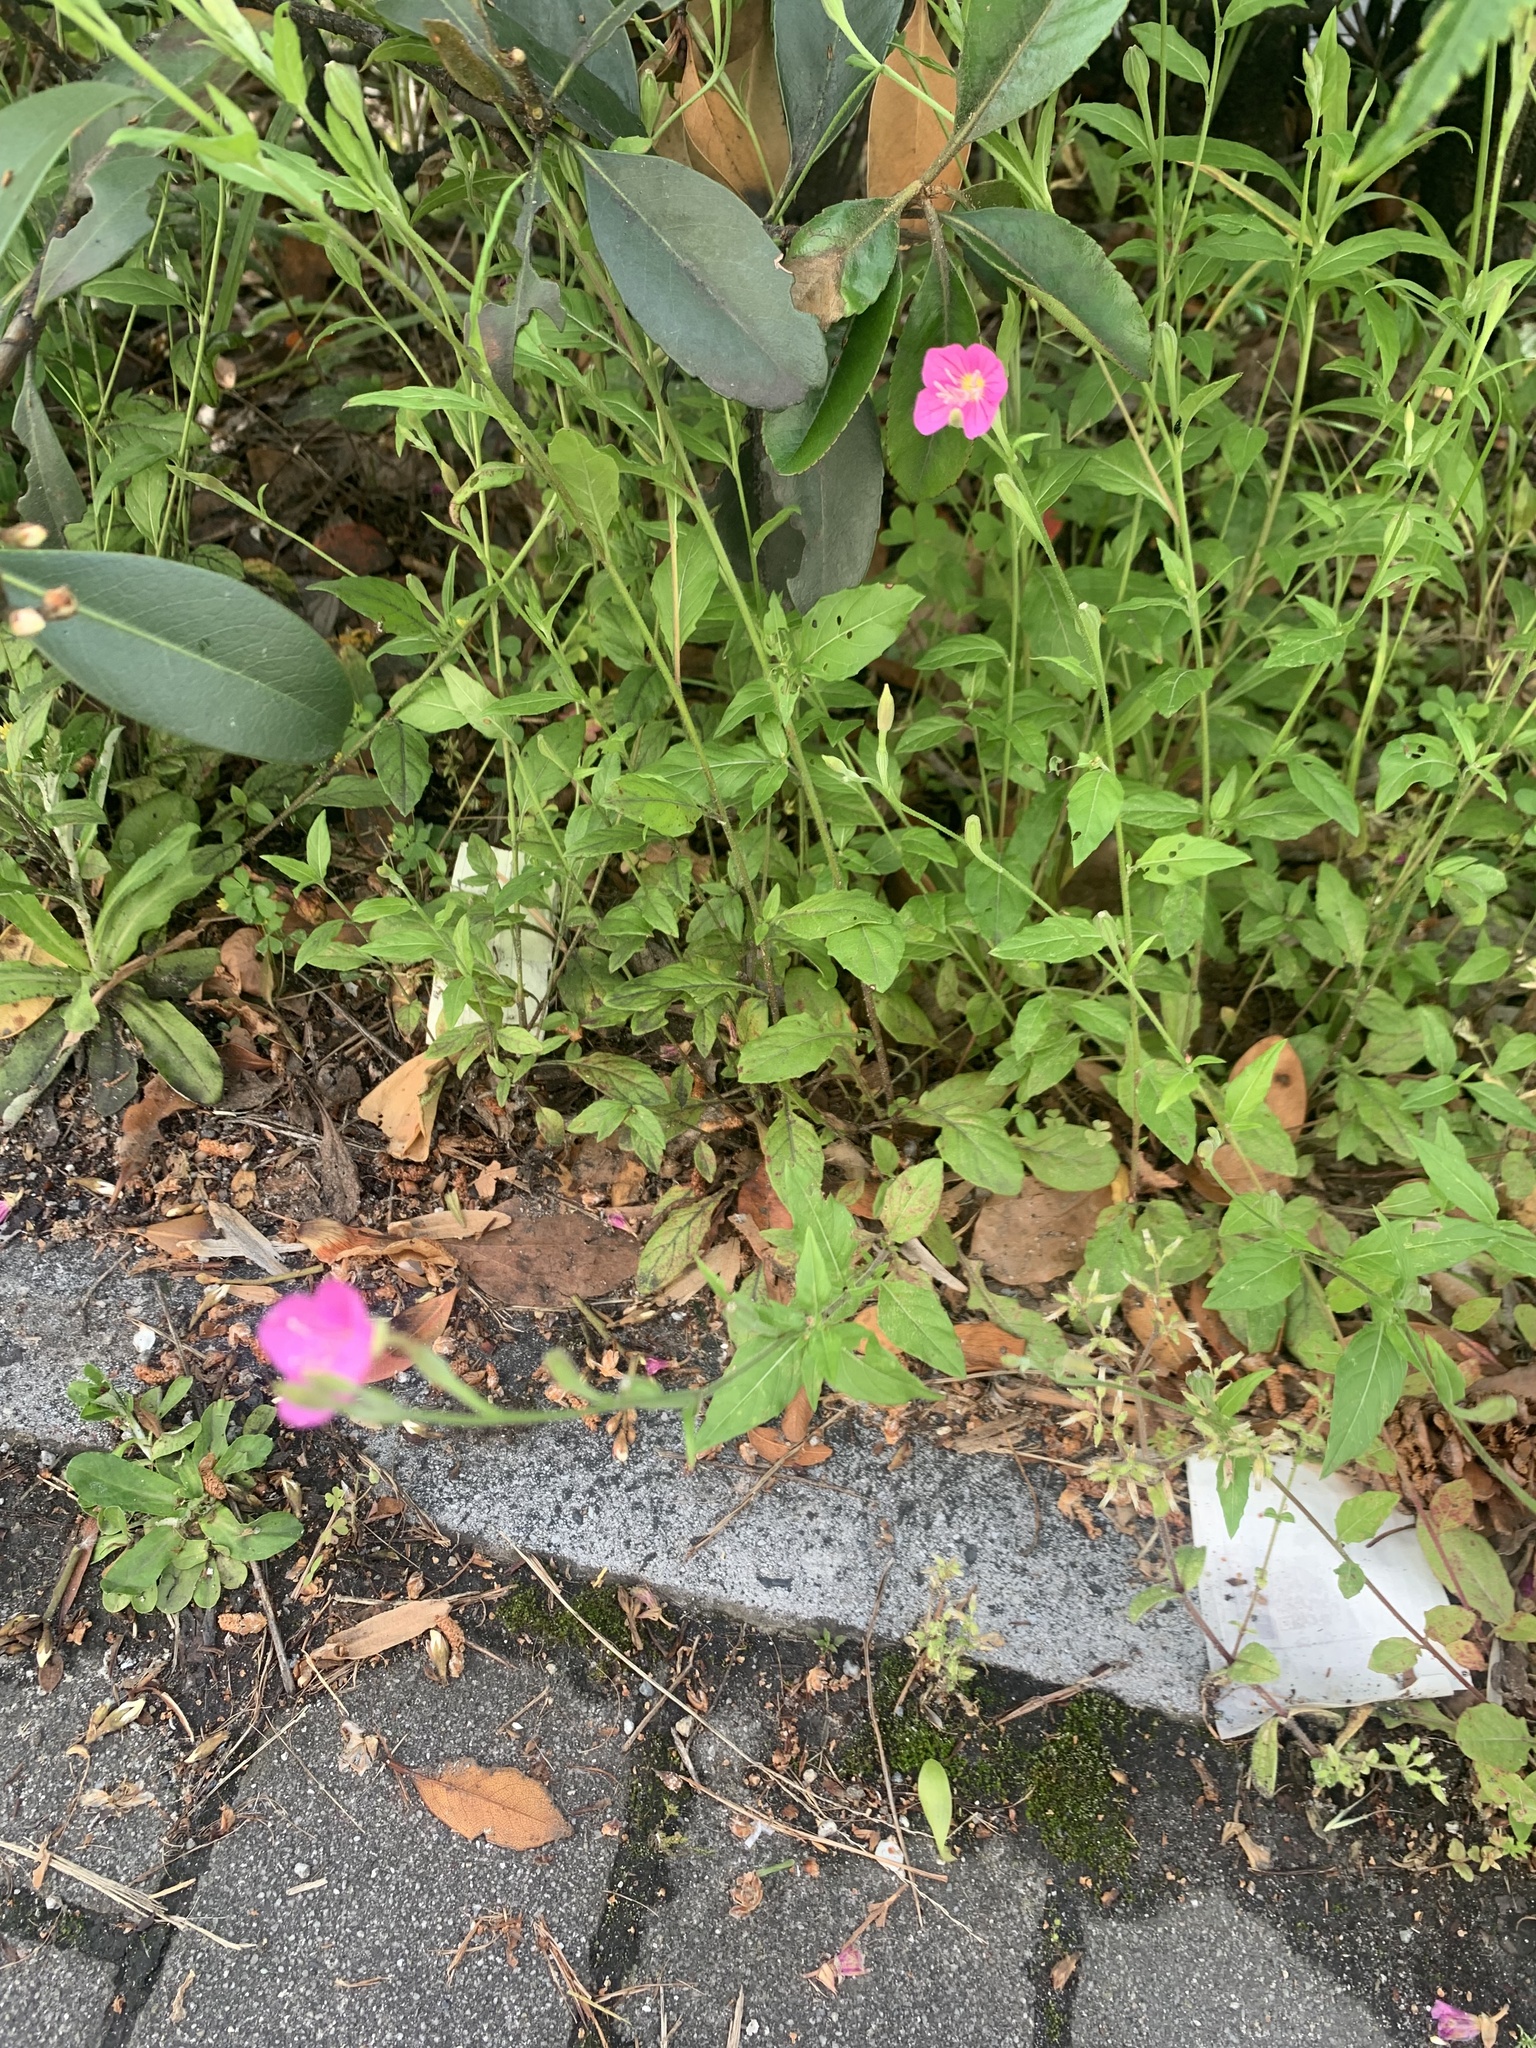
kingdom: Plantae
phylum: Tracheophyta
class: Magnoliopsida
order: Myrtales
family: Onagraceae
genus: Oenothera
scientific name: Oenothera rosea
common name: Rosy evening-primrose
